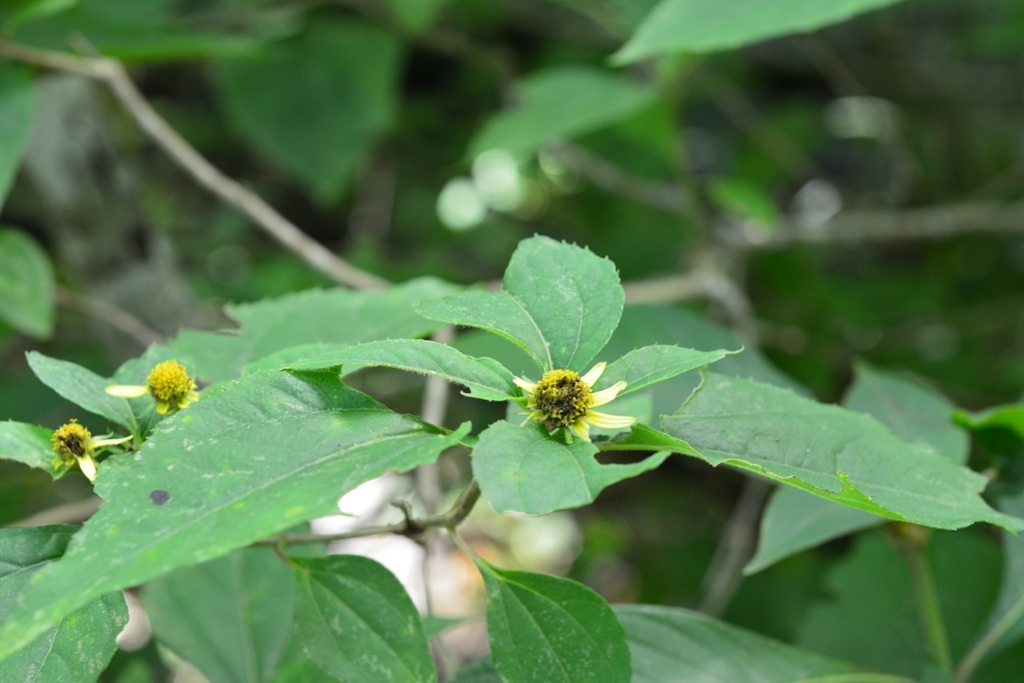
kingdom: Plantae
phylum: Tracheophyta
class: Magnoliopsida
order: Asterales
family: Asteraceae
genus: Philactis
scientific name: Philactis zinnioides
